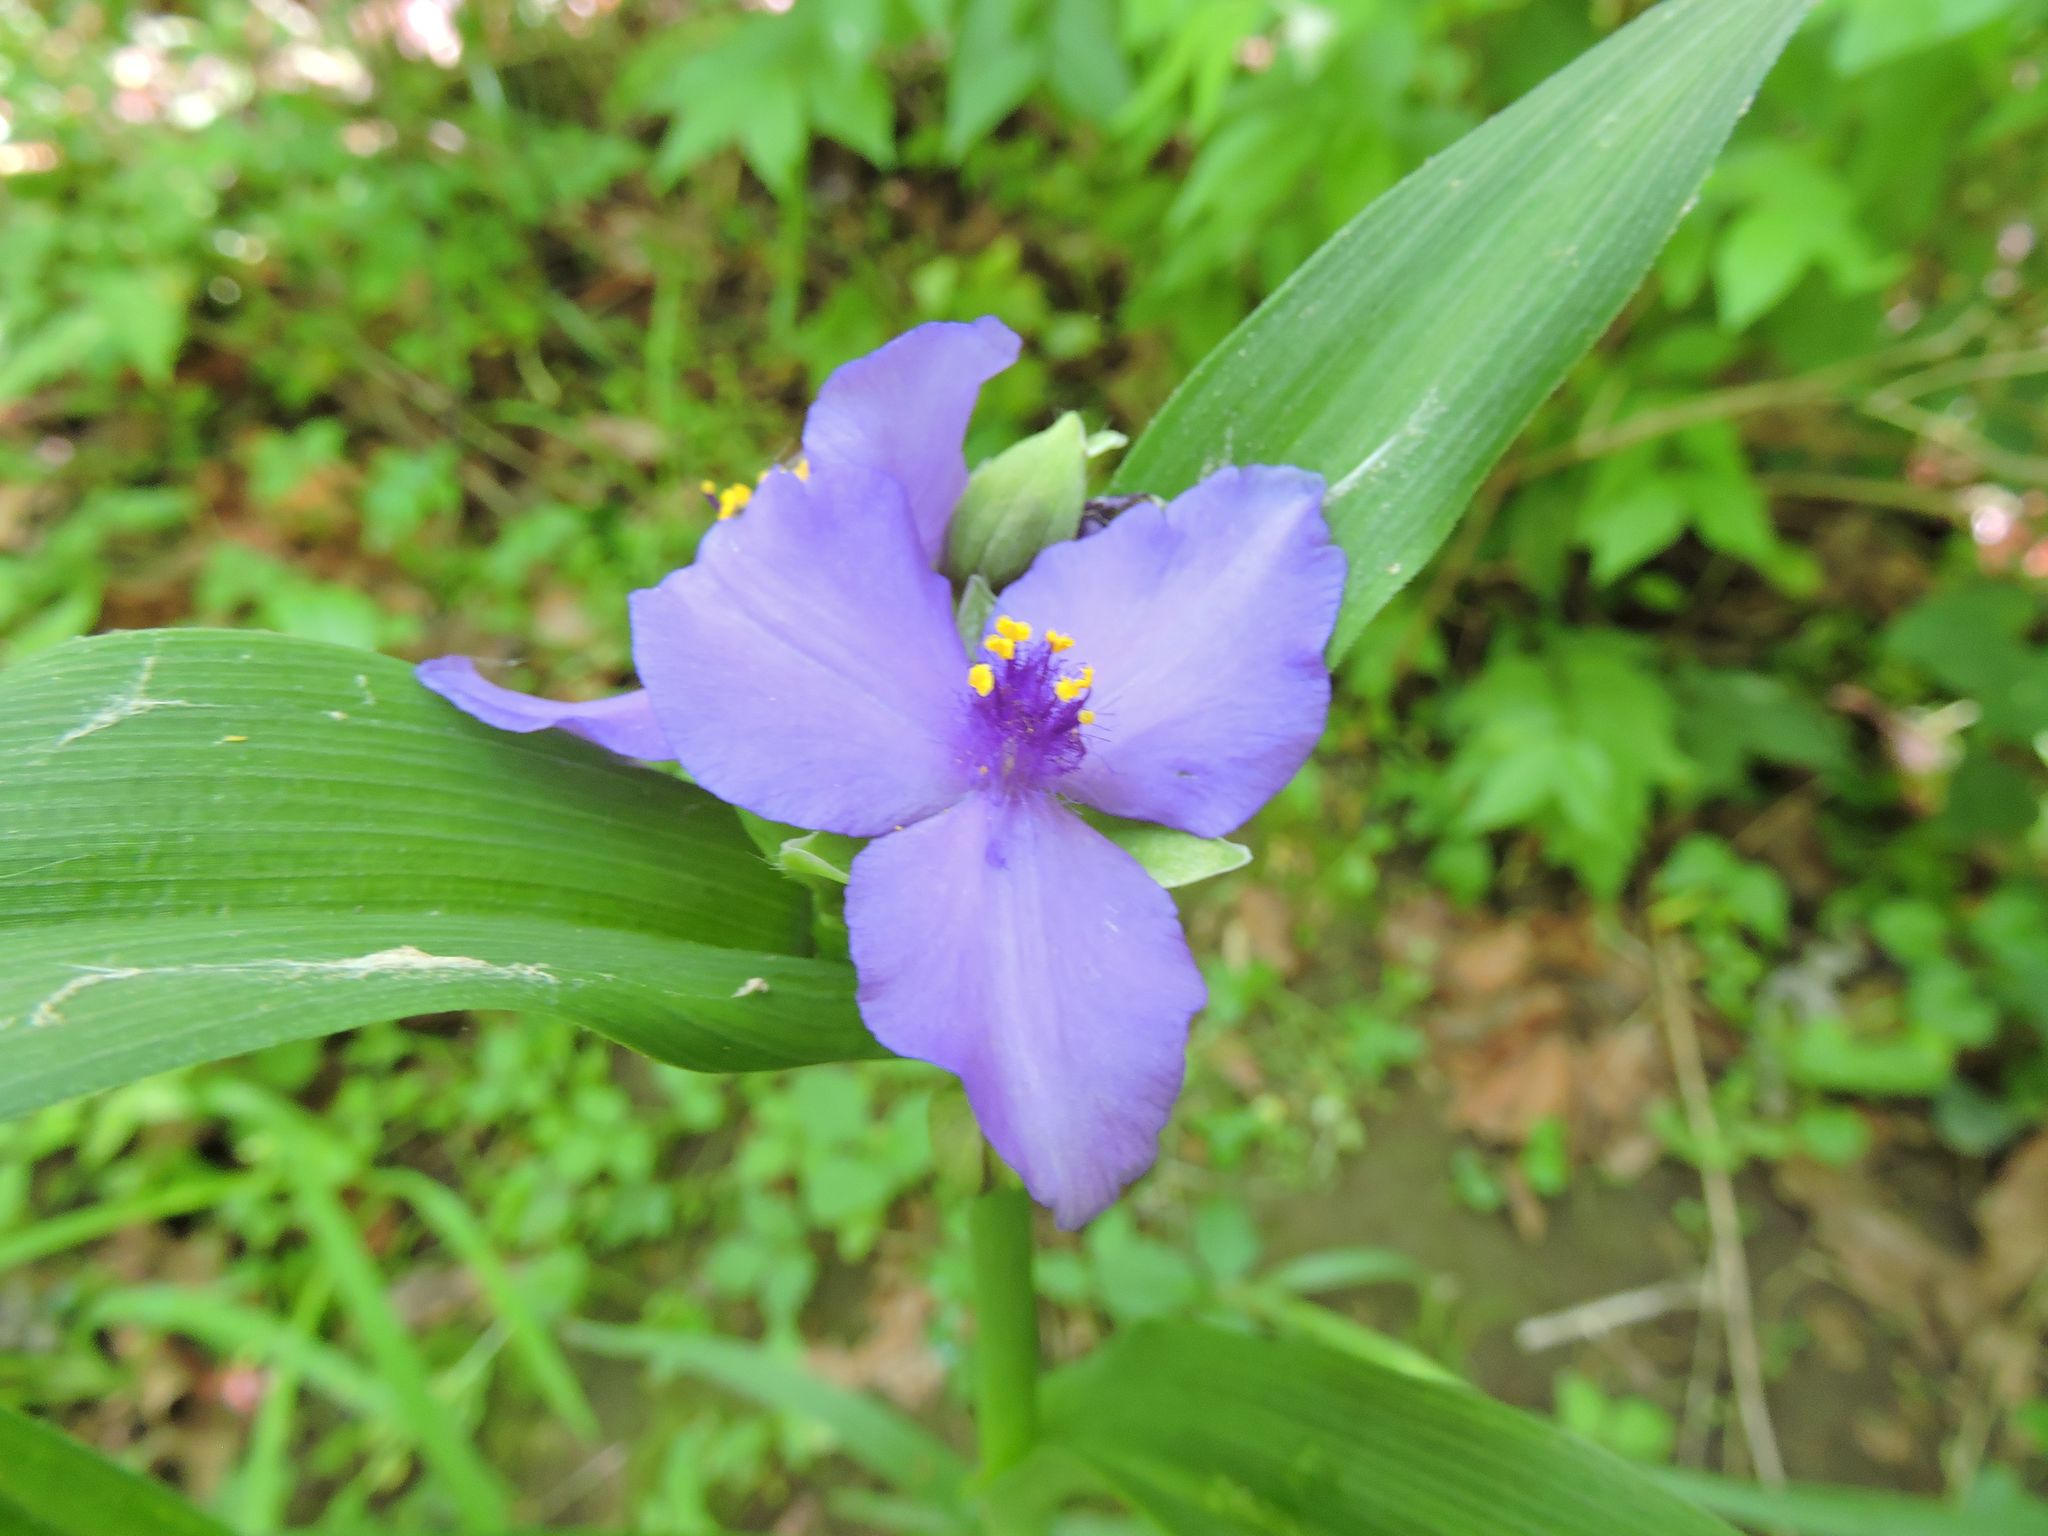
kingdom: Plantae
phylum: Tracheophyta
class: Liliopsida
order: Commelinales
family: Commelinaceae
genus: Tradescantia
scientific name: Tradescantia virginiana
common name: Spiderwort
